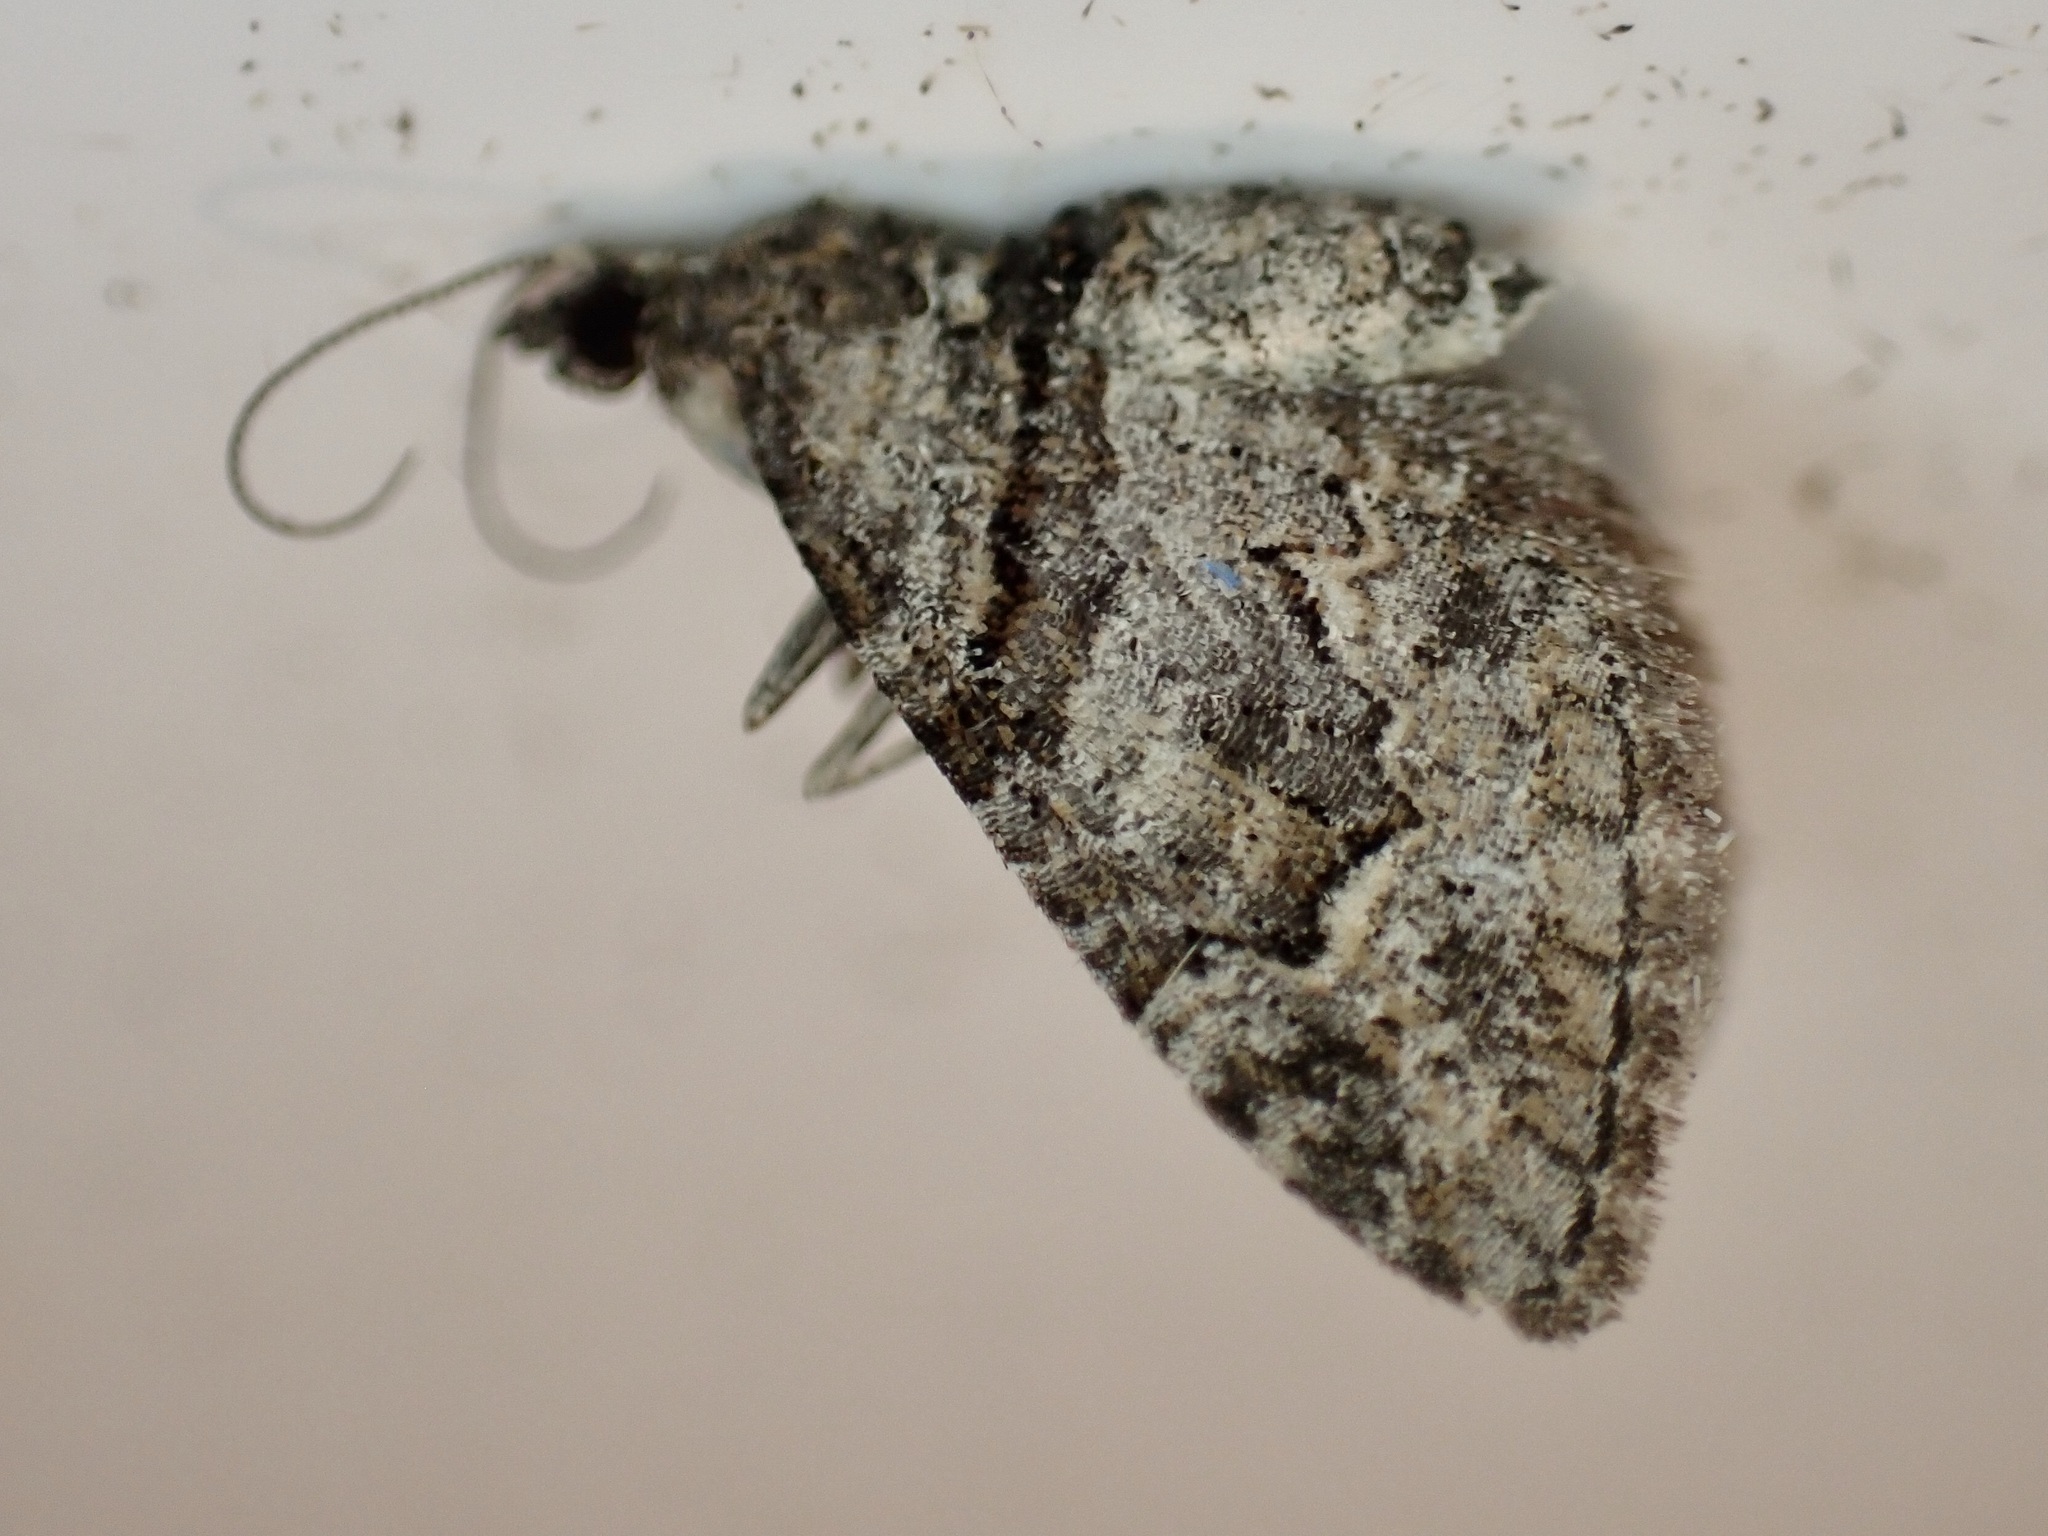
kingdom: Animalia
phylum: Arthropoda
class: Insecta
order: Lepidoptera
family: Geometridae
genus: Phrissogonus
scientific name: Phrissogonus laticostata
